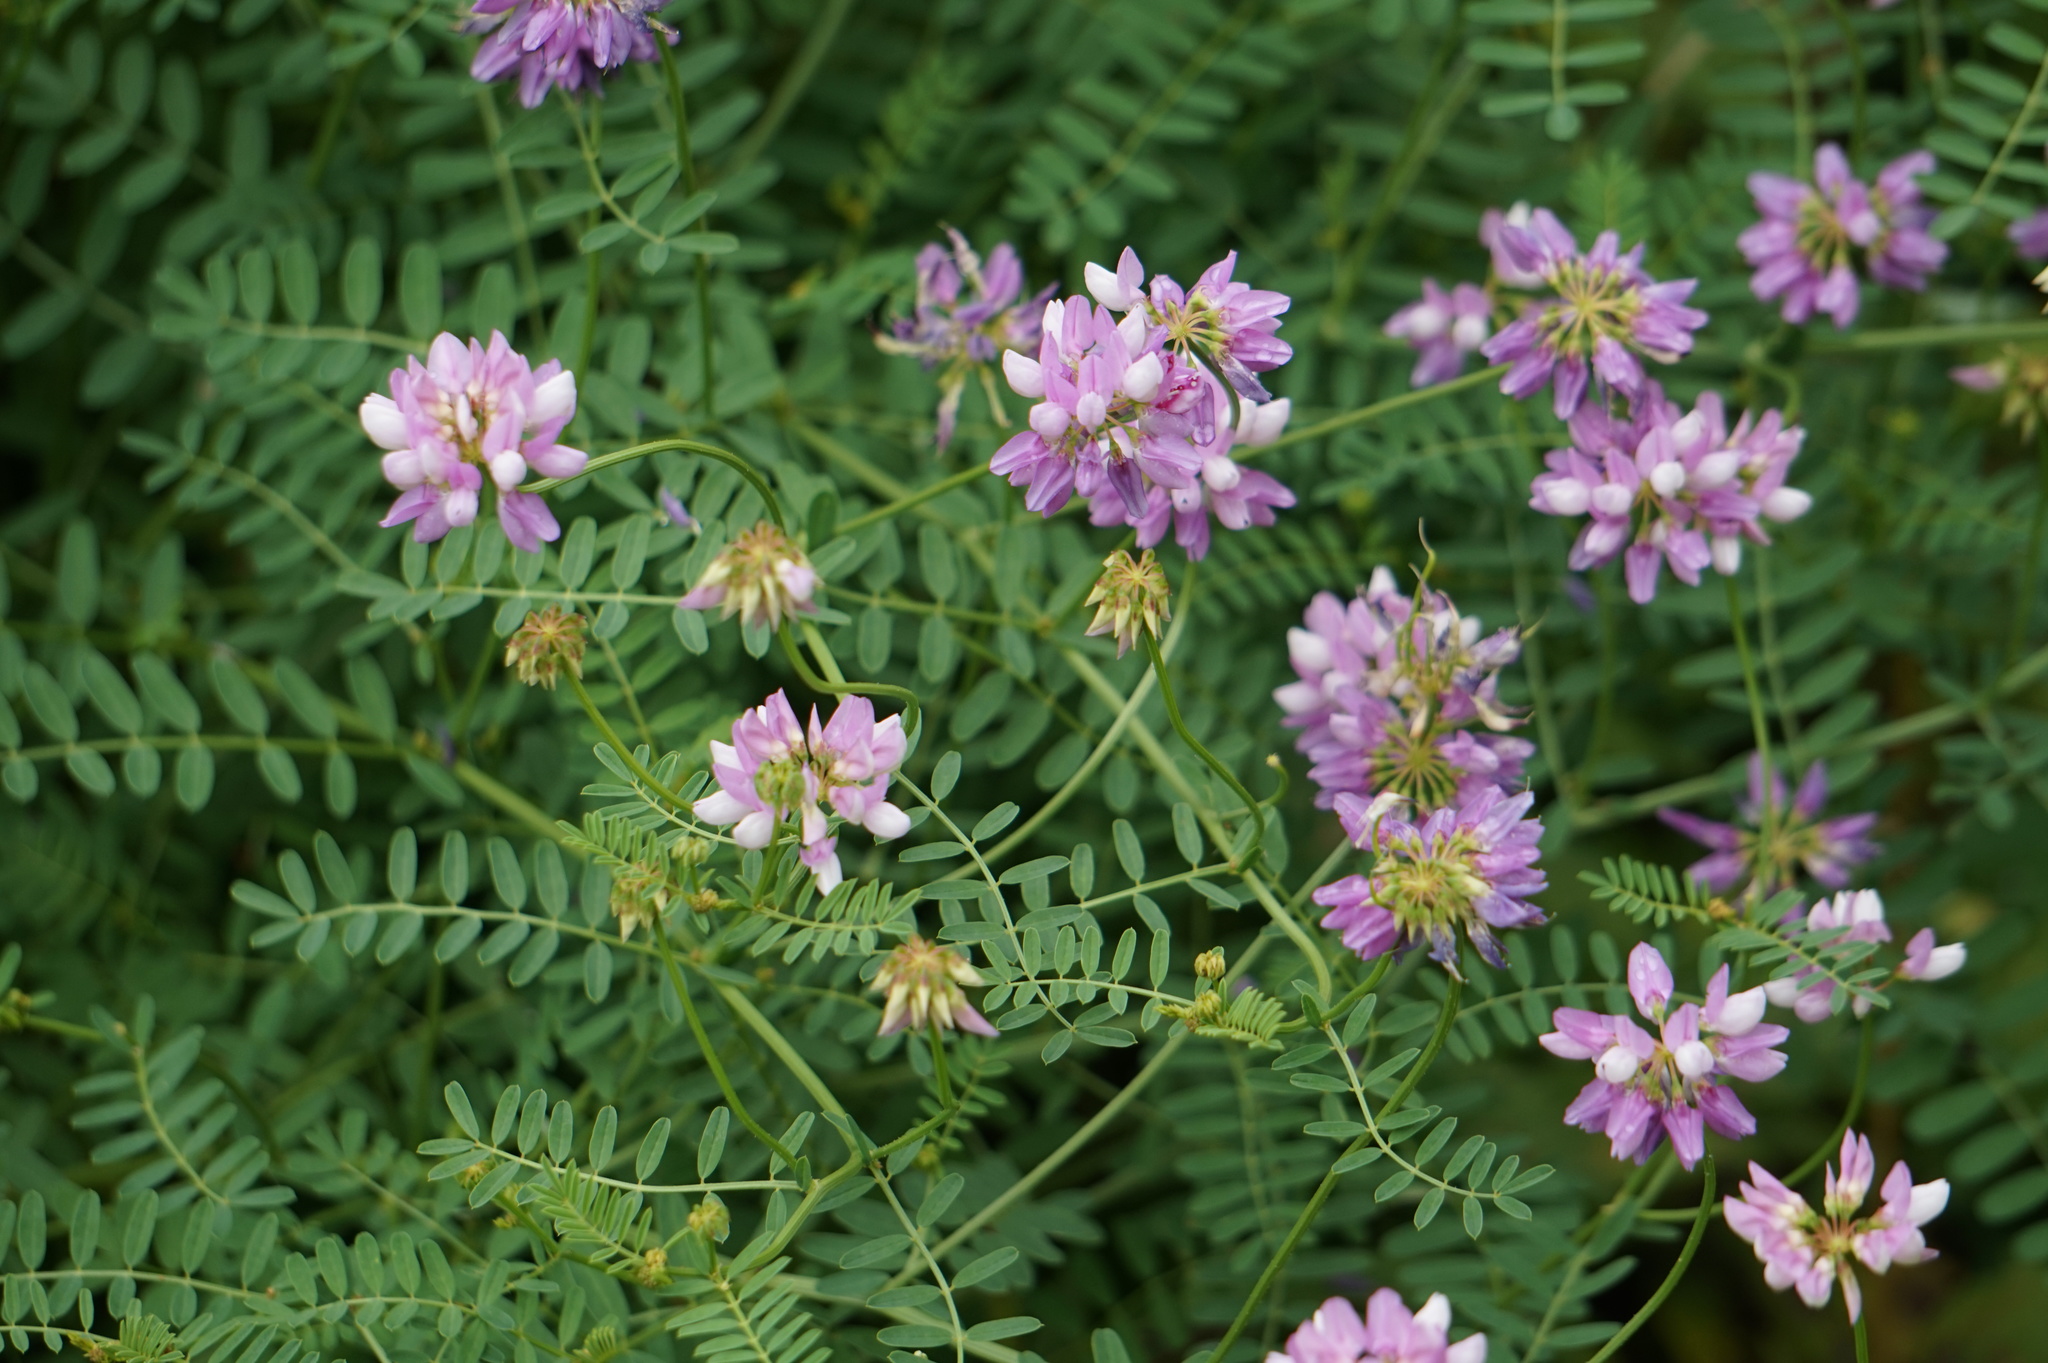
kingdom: Plantae
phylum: Tracheophyta
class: Magnoliopsida
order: Fabales
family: Fabaceae
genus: Coronilla
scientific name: Coronilla varia
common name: Crownvetch
